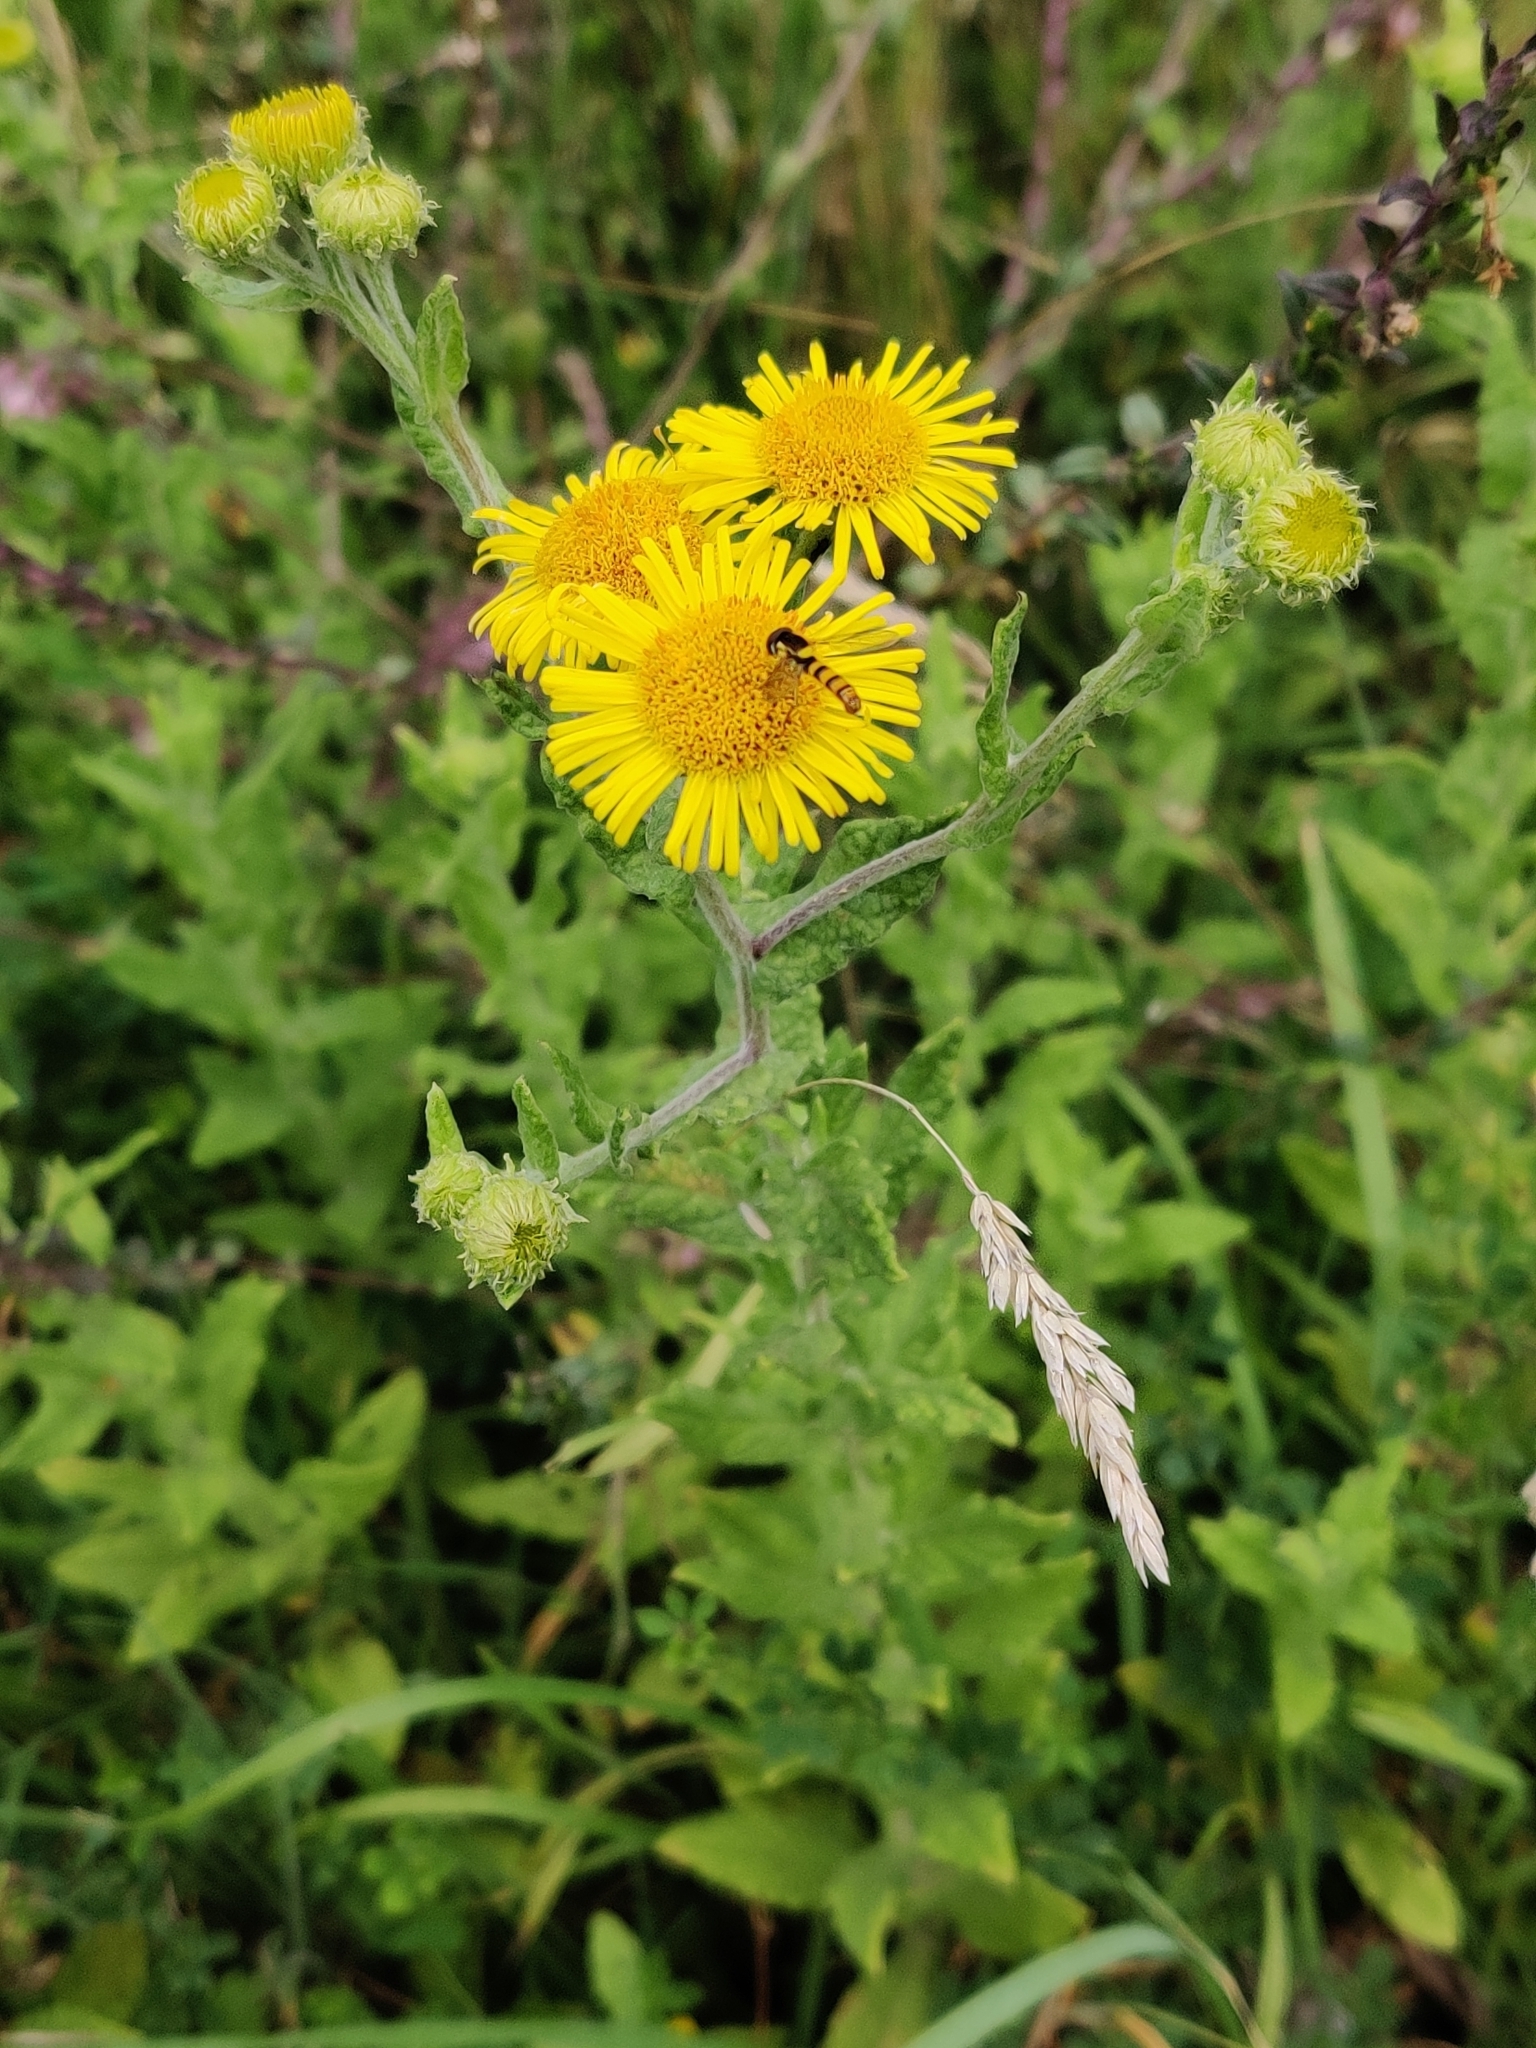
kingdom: Plantae
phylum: Tracheophyta
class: Magnoliopsida
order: Asterales
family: Asteraceae
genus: Pulicaria
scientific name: Pulicaria dysenterica
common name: Common fleabane
